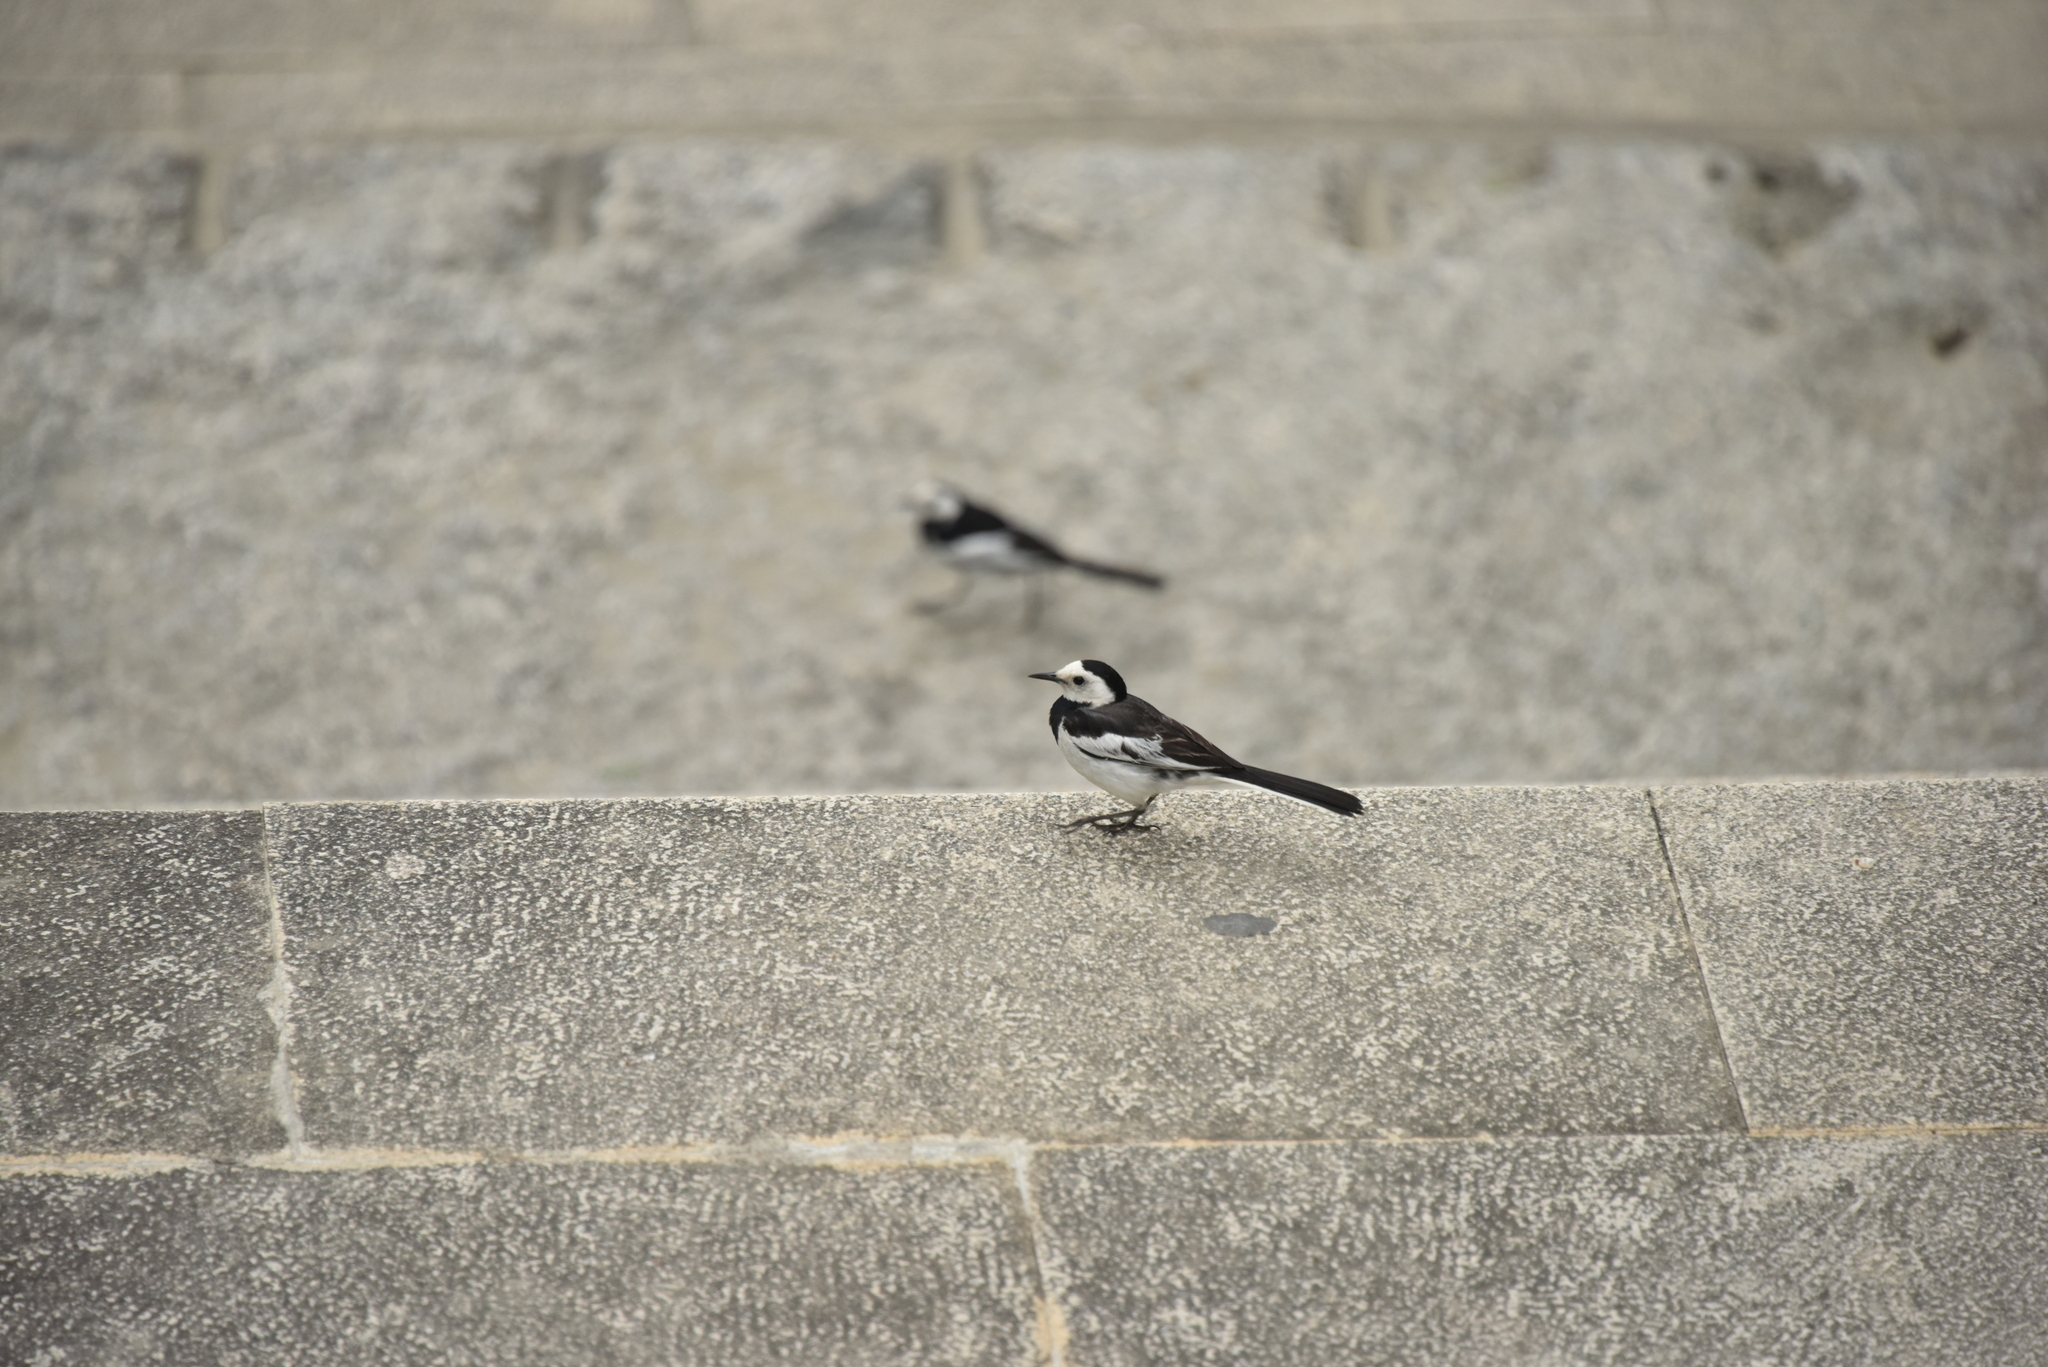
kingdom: Animalia
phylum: Chordata
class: Aves
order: Passeriformes
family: Motacillidae
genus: Motacilla
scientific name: Motacilla alba
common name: White wagtail
